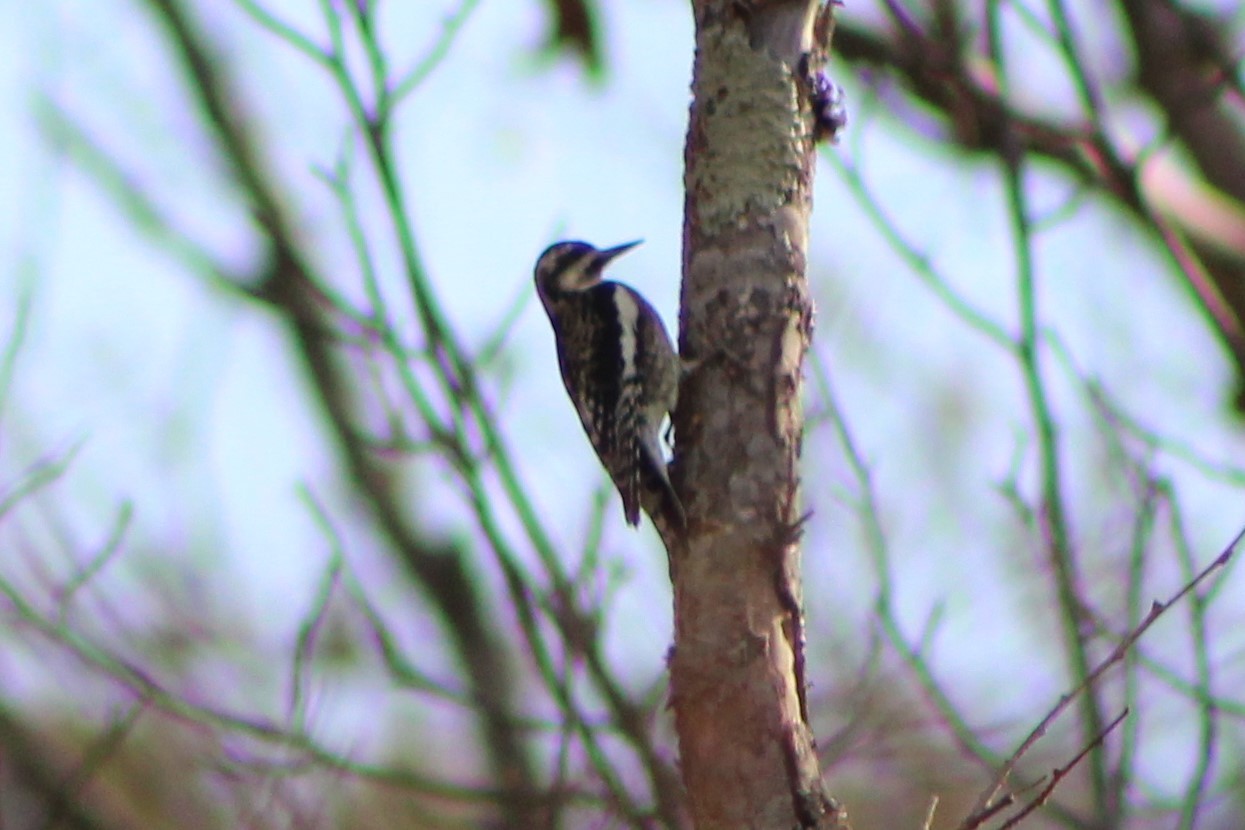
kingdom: Animalia
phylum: Chordata
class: Aves
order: Piciformes
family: Picidae
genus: Sphyrapicus
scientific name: Sphyrapicus varius
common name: Yellow-bellied sapsucker
